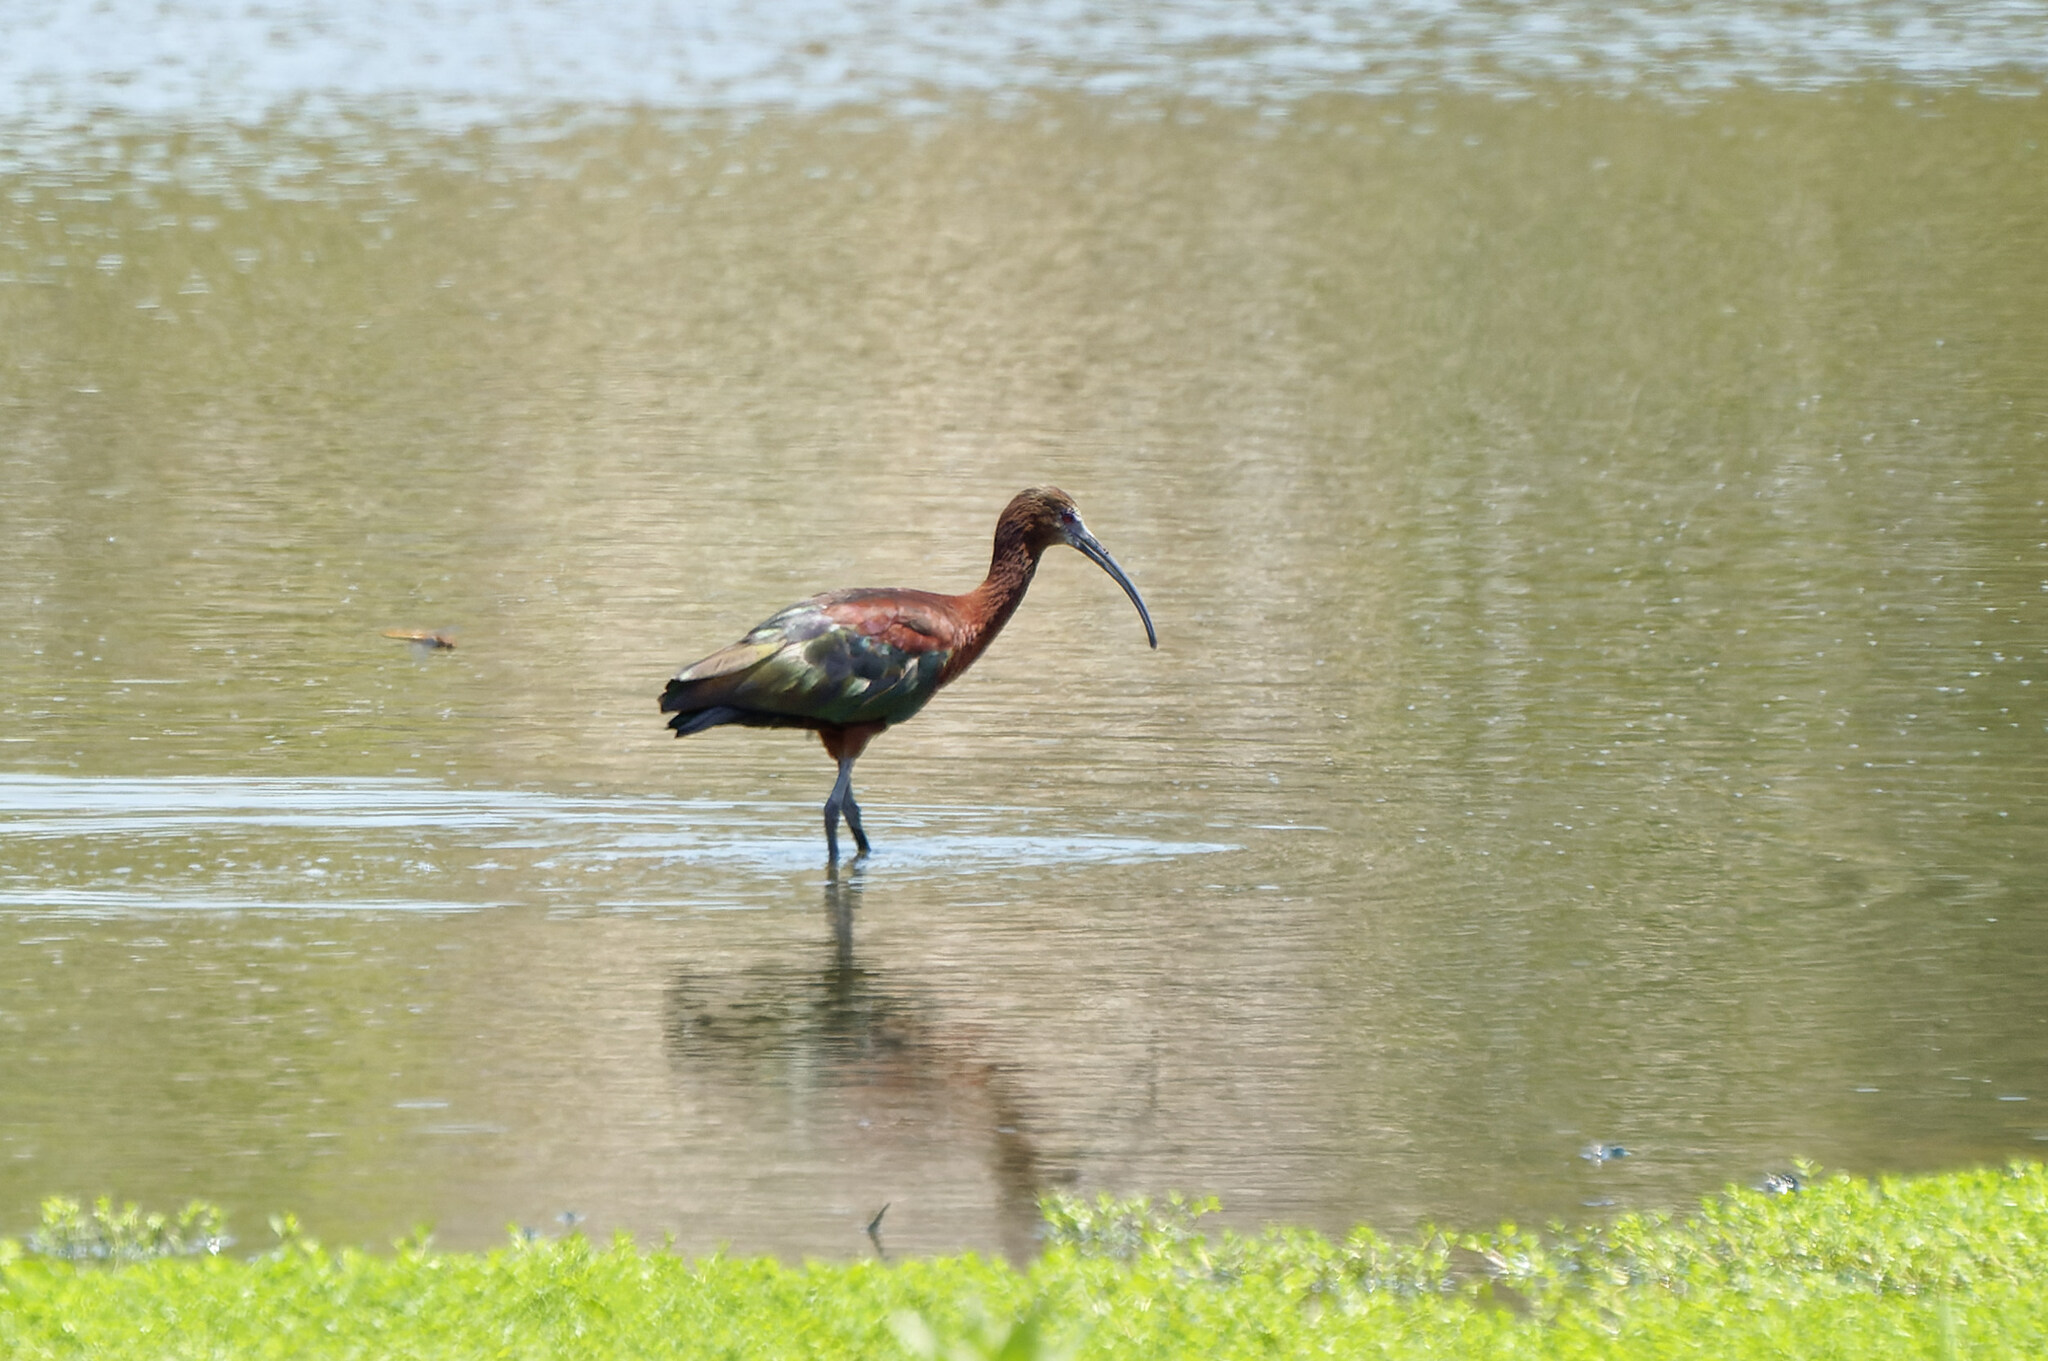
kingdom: Animalia
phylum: Chordata
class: Aves
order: Pelecaniformes
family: Threskiornithidae
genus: Plegadis
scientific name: Plegadis chihi
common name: White-faced ibis
